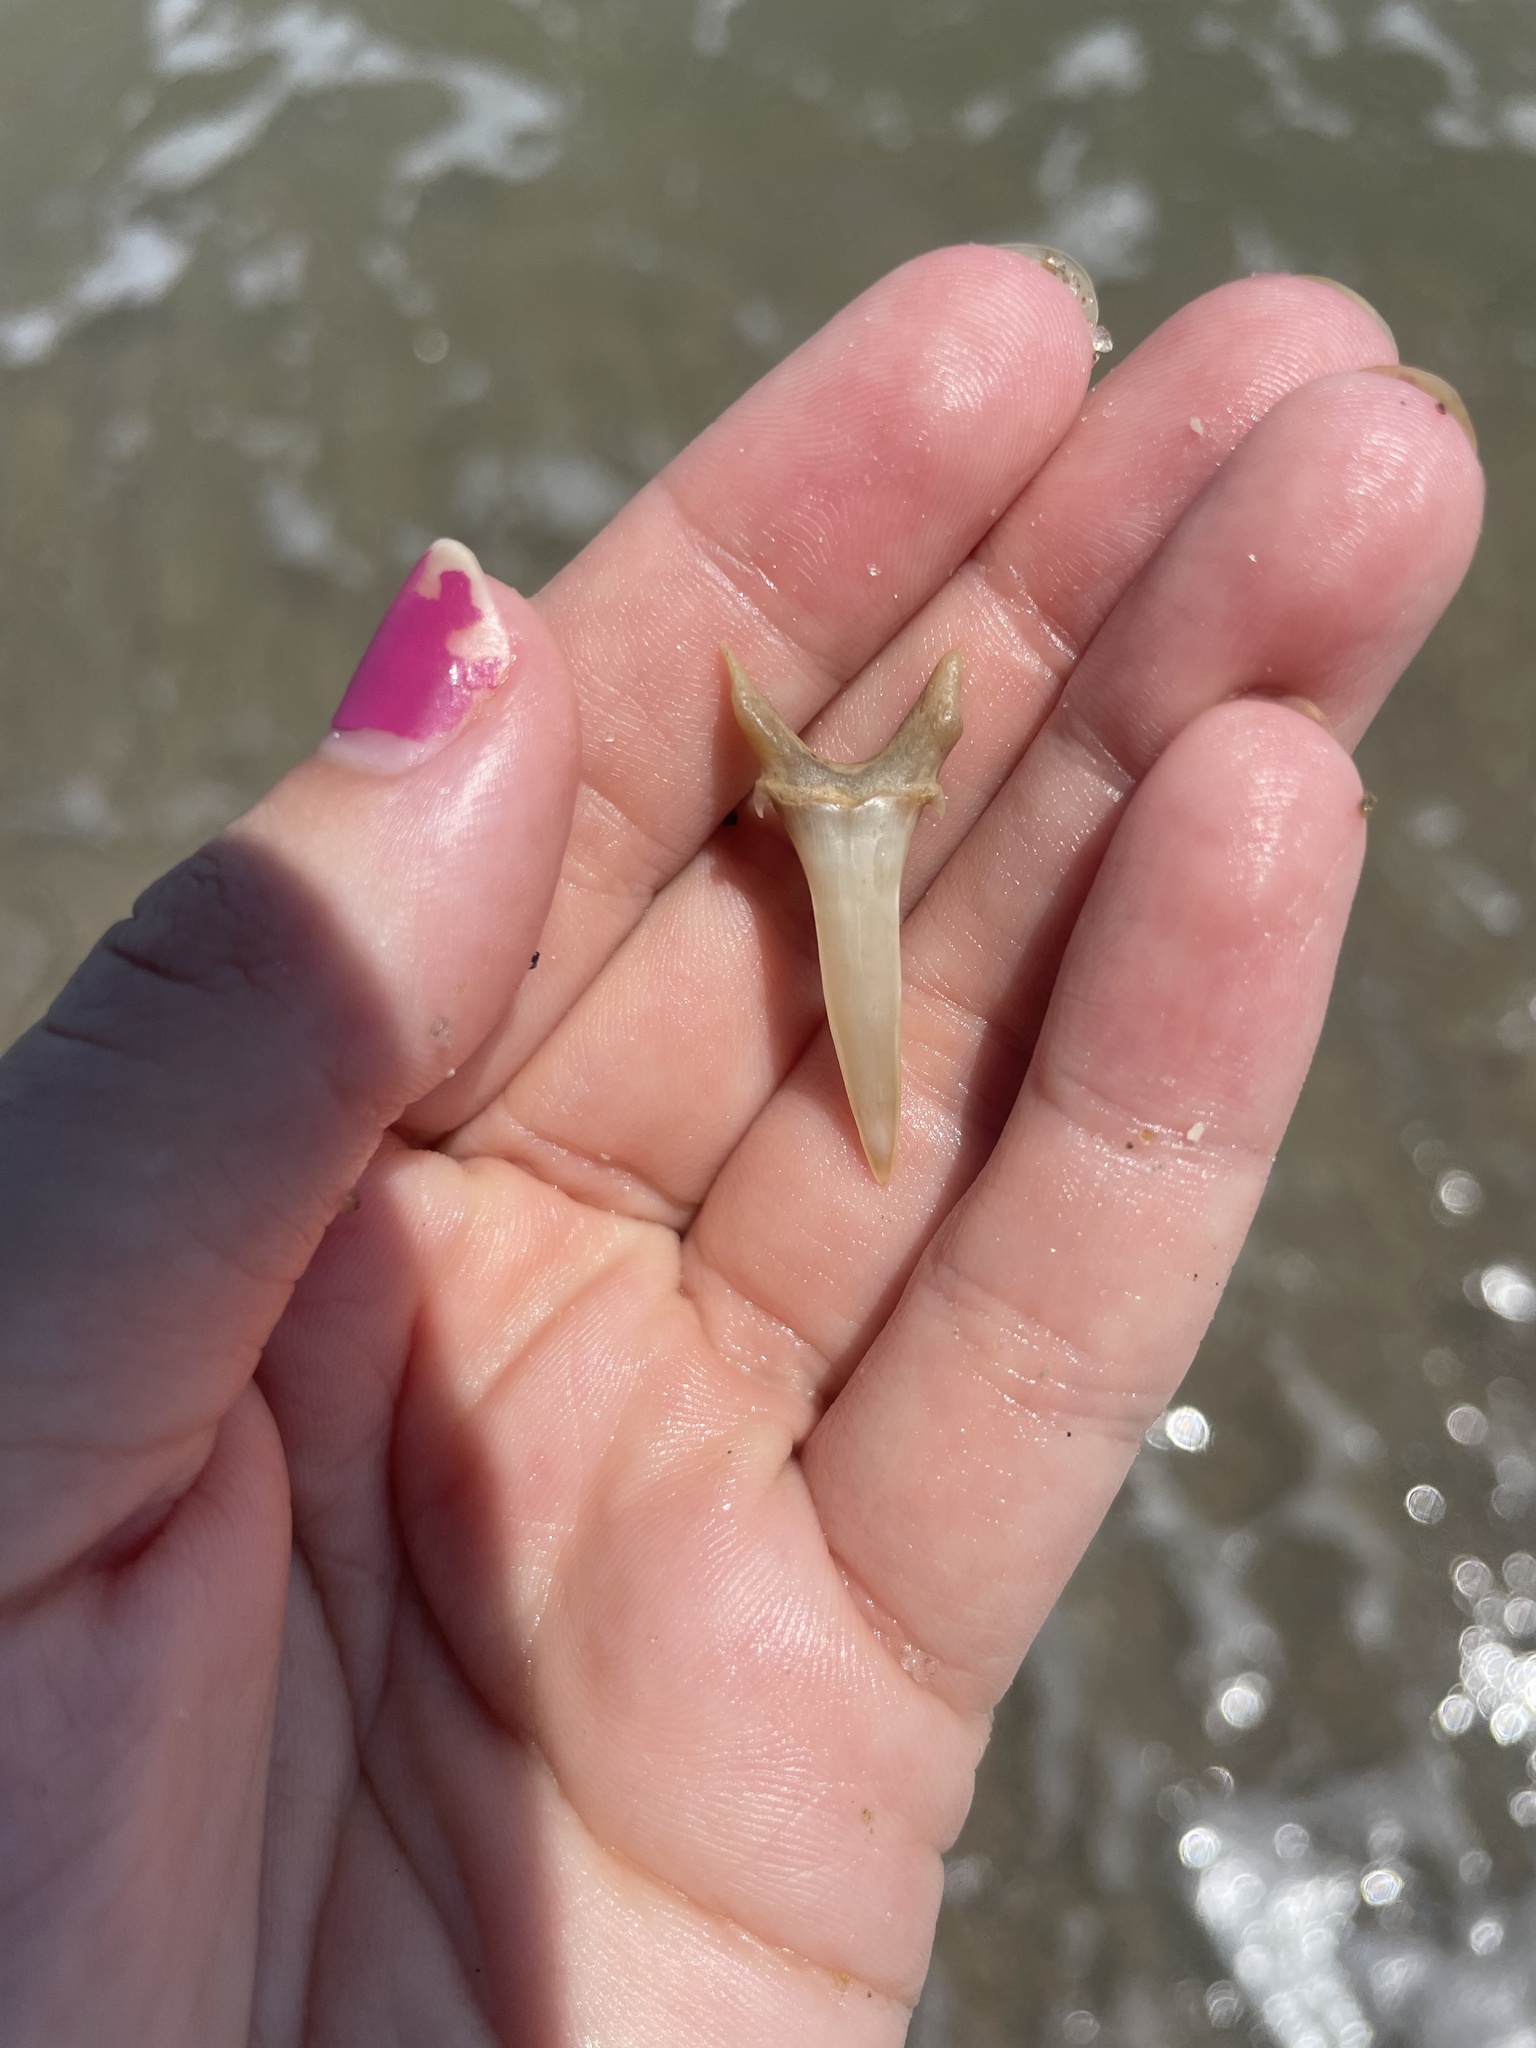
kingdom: Animalia
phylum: Chordata
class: Elasmobranchii
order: Lamniformes
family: Odontaspididae
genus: Carcharias
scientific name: Carcharias taurus
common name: Sand shark
